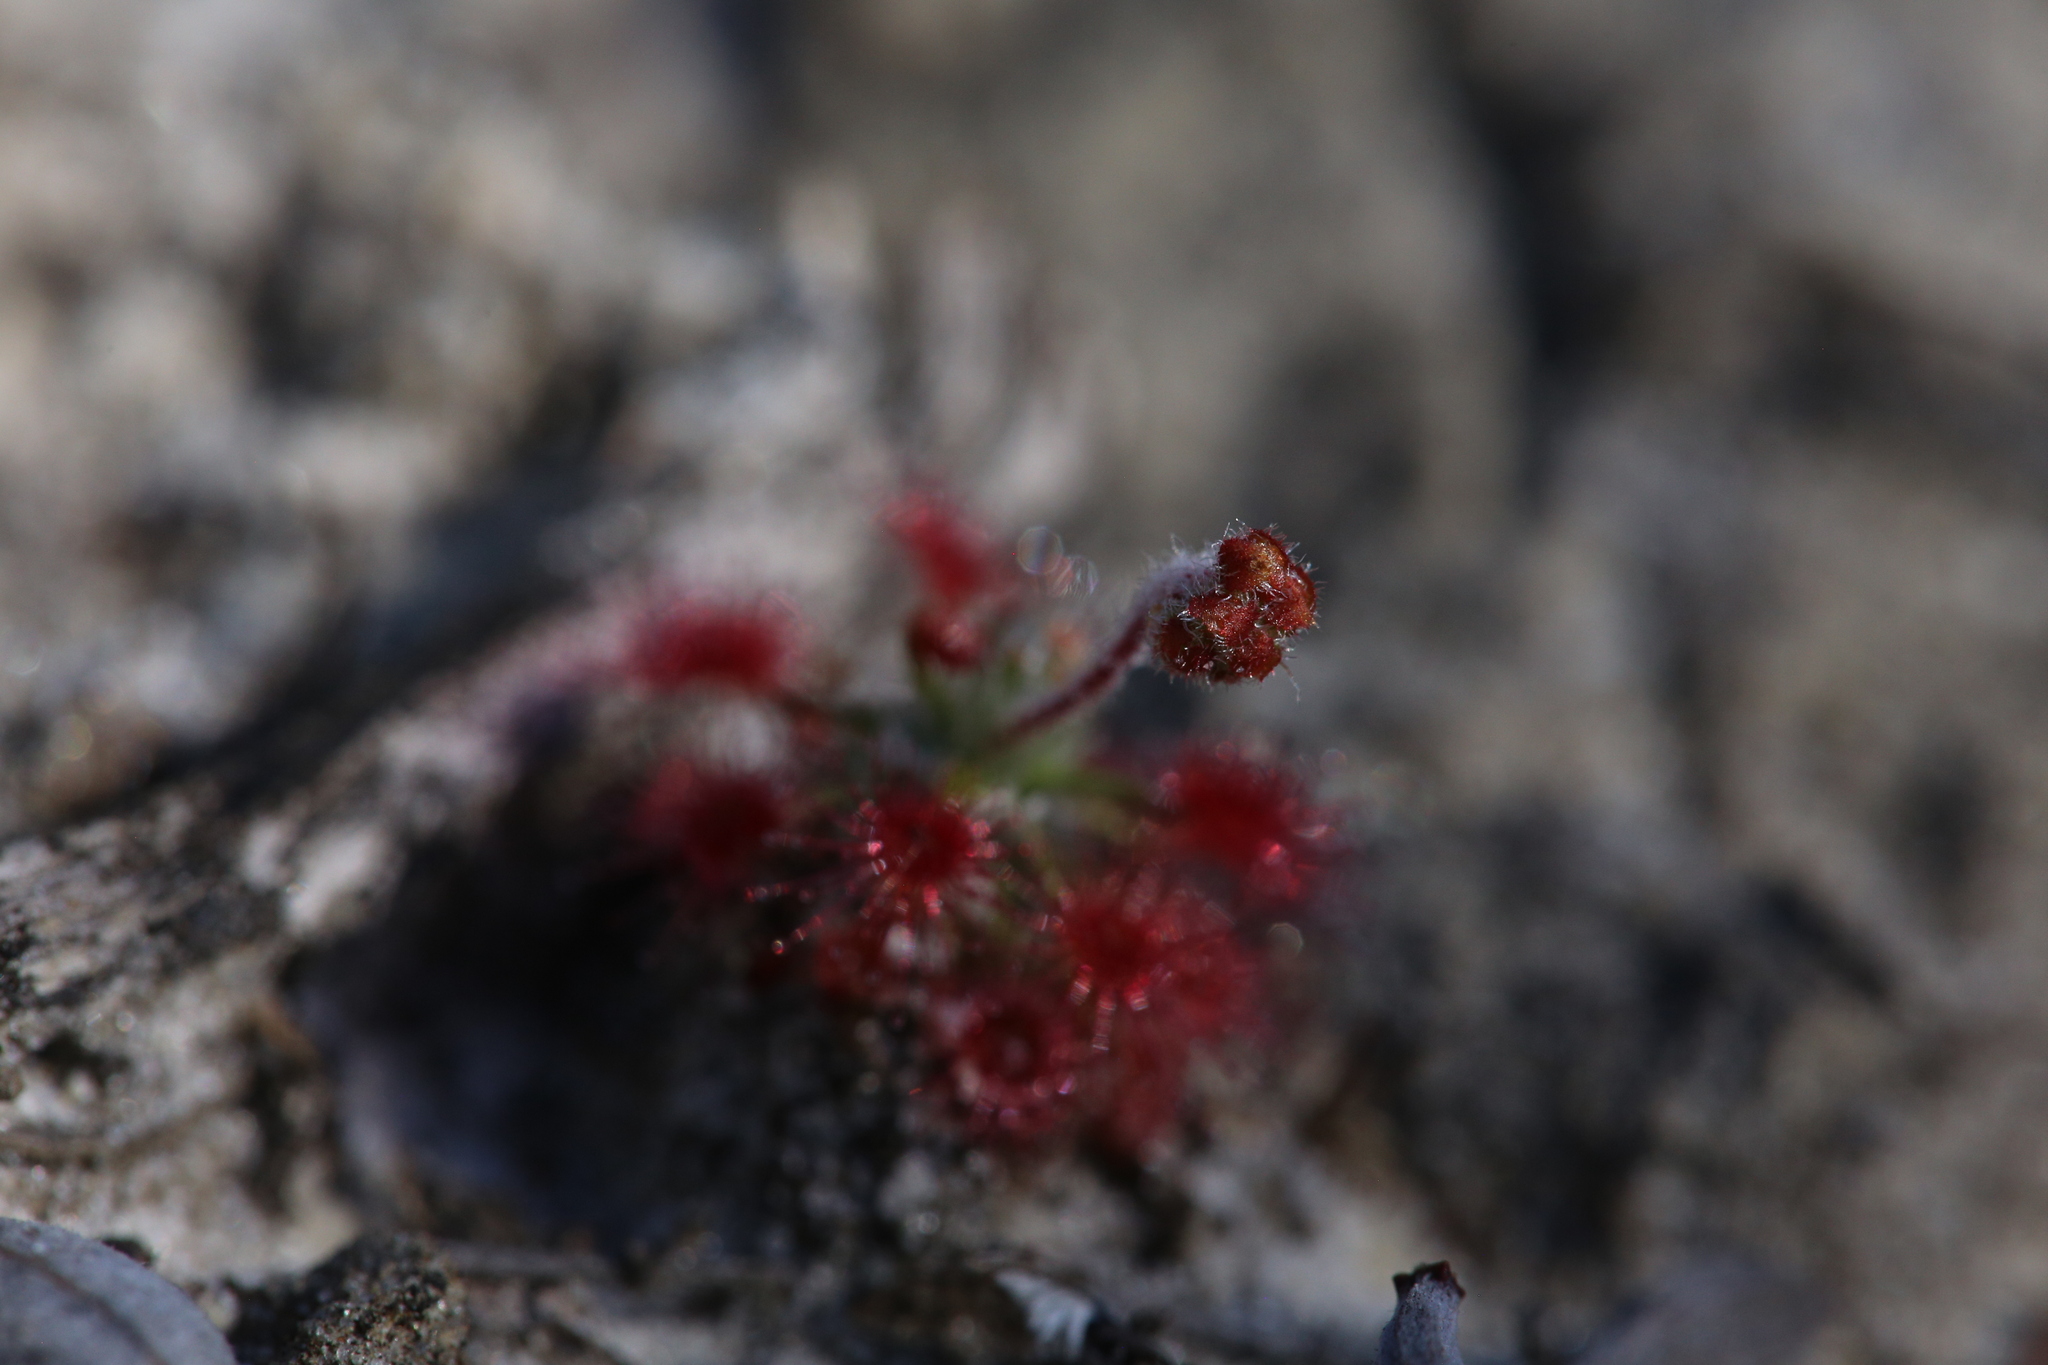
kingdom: Plantae
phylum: Tracheophyta
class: Magnoliopsida
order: Caryophyllales
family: Droseraceae
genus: Drosera
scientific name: Drosera paleacea
